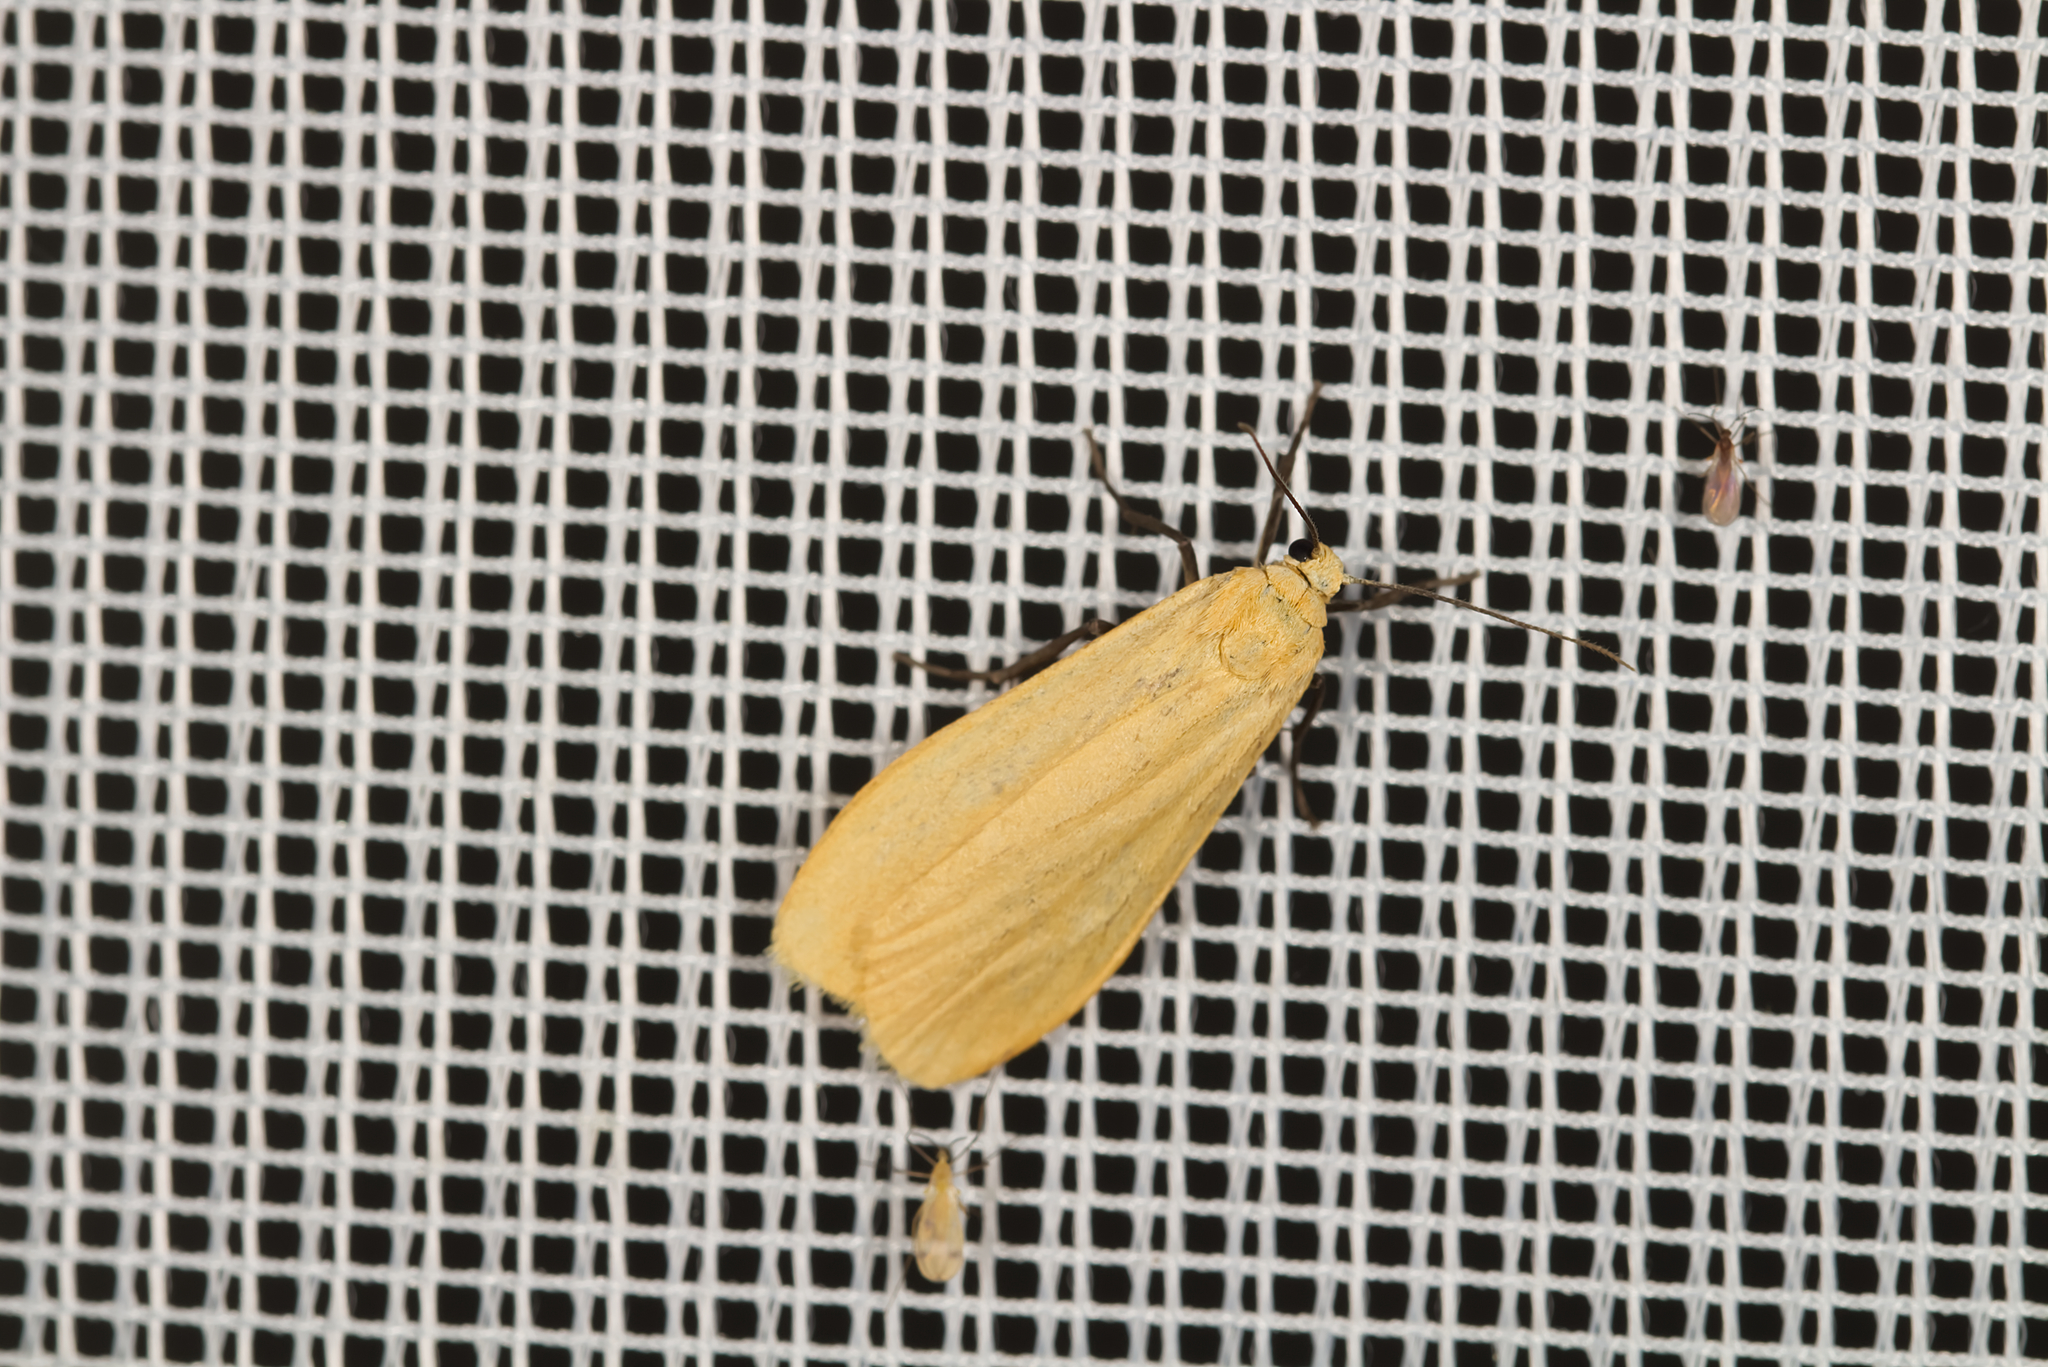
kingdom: Animalia
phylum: Arthropoda
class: Insecta
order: Lepidoptera
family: Erebidae
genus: Wittia
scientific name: Wittia sororcula
